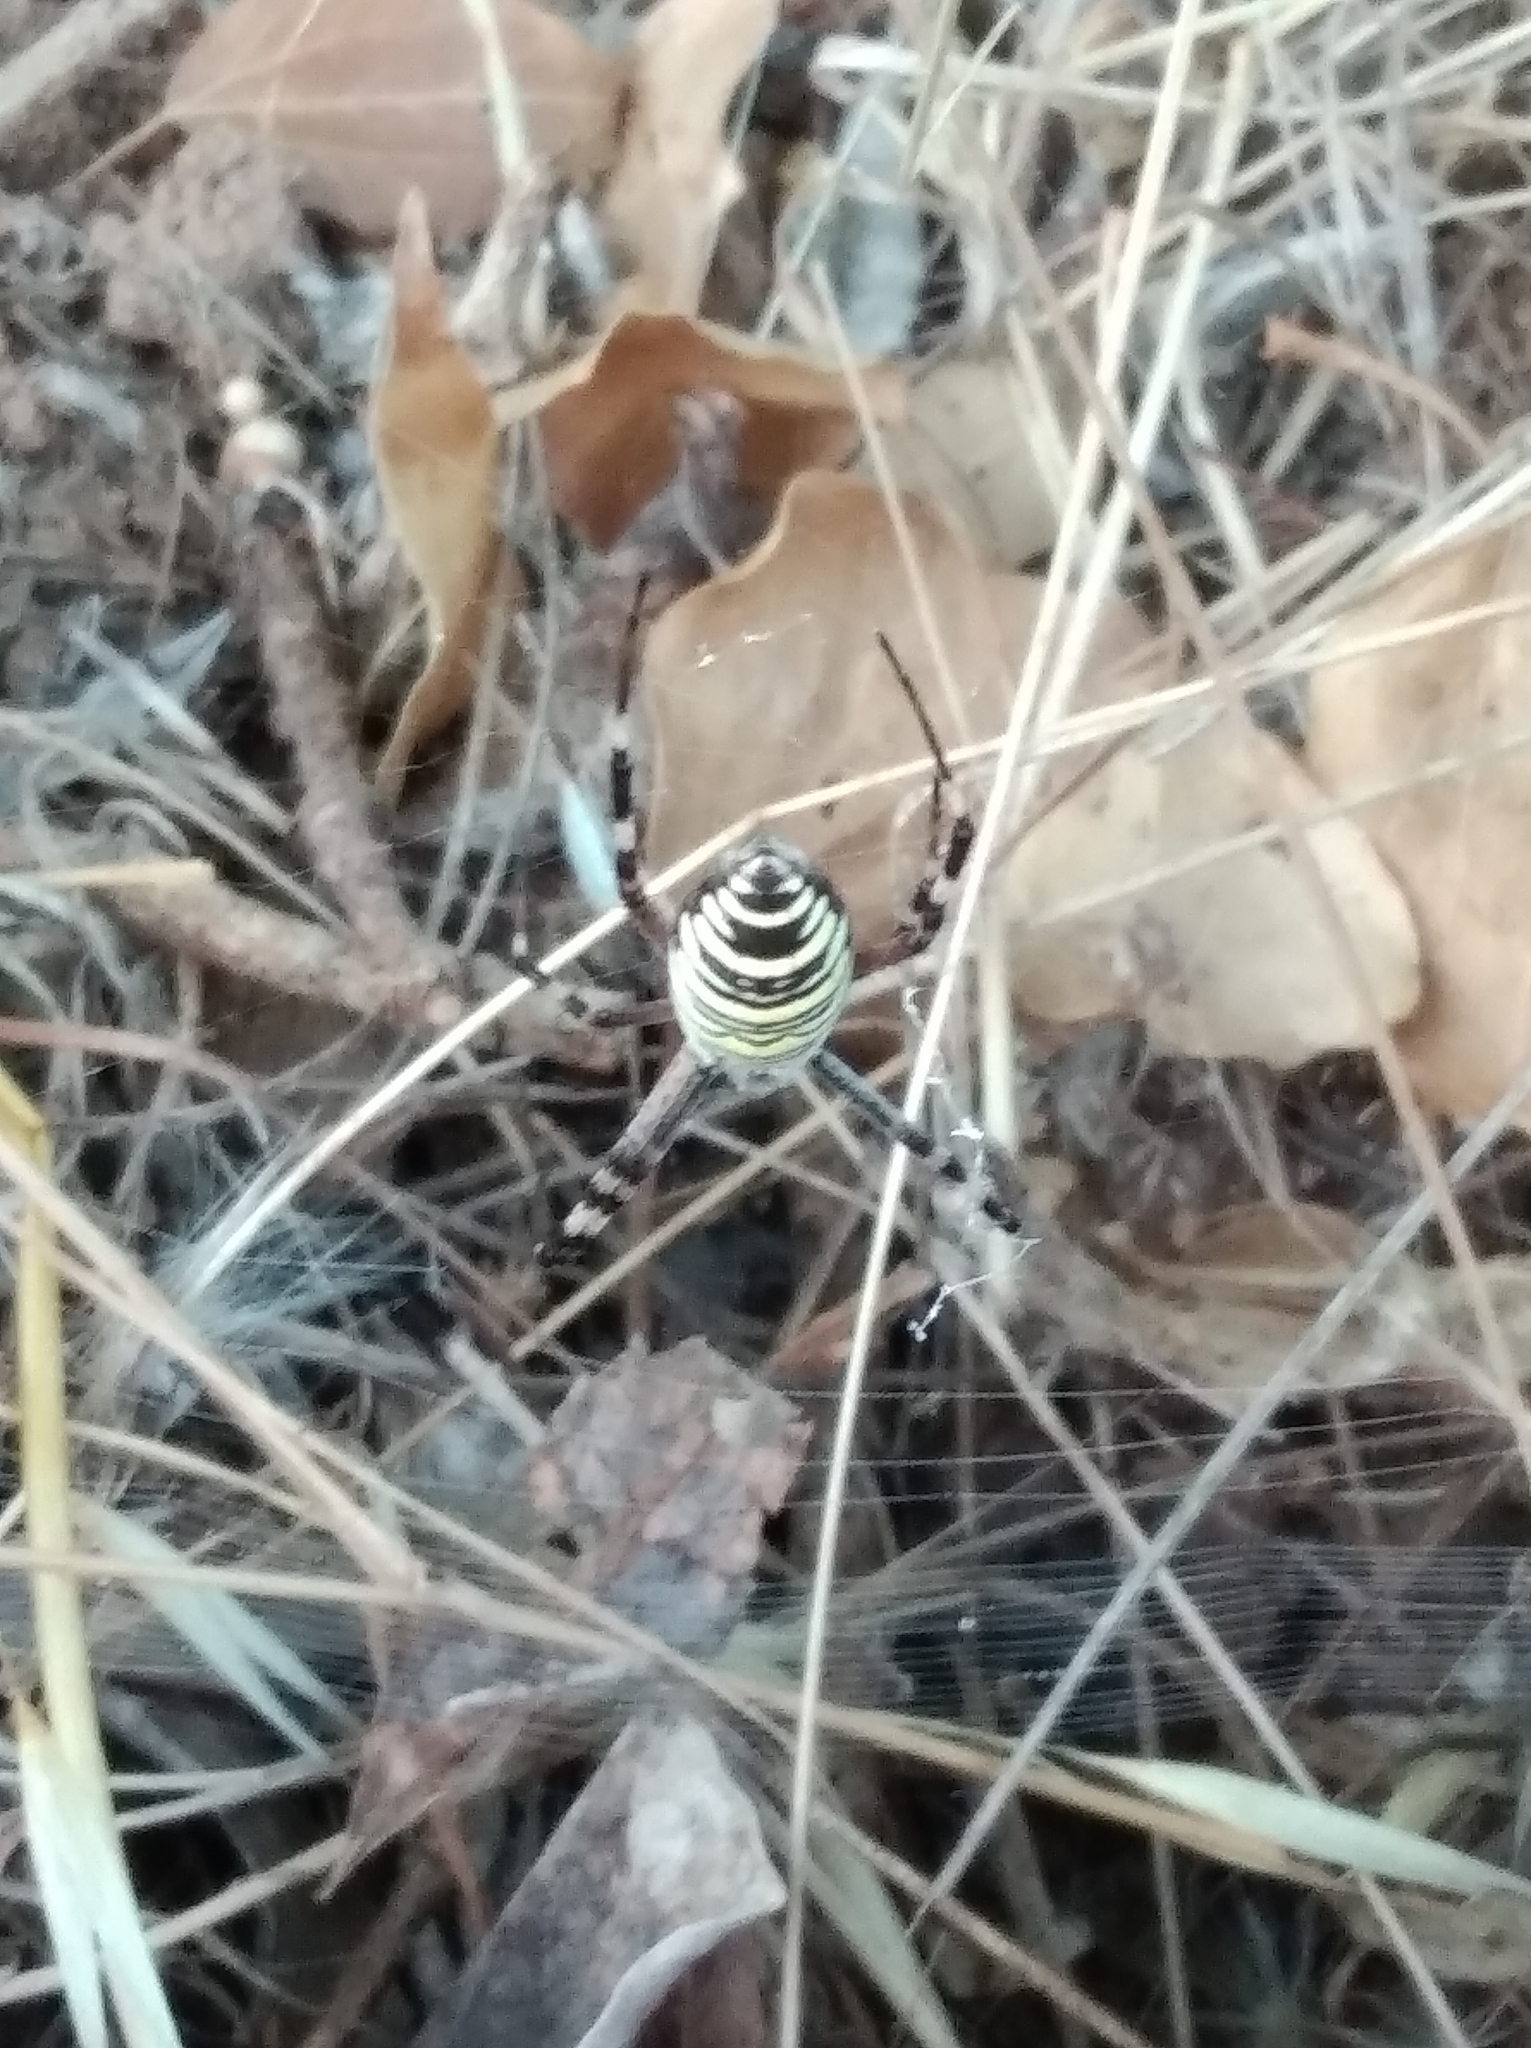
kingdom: Animalia
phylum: Arthropoda
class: Arachnida
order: Araneae
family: Araneidae
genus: Argiope
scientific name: Argiope bruennichi
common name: Wasp spider
